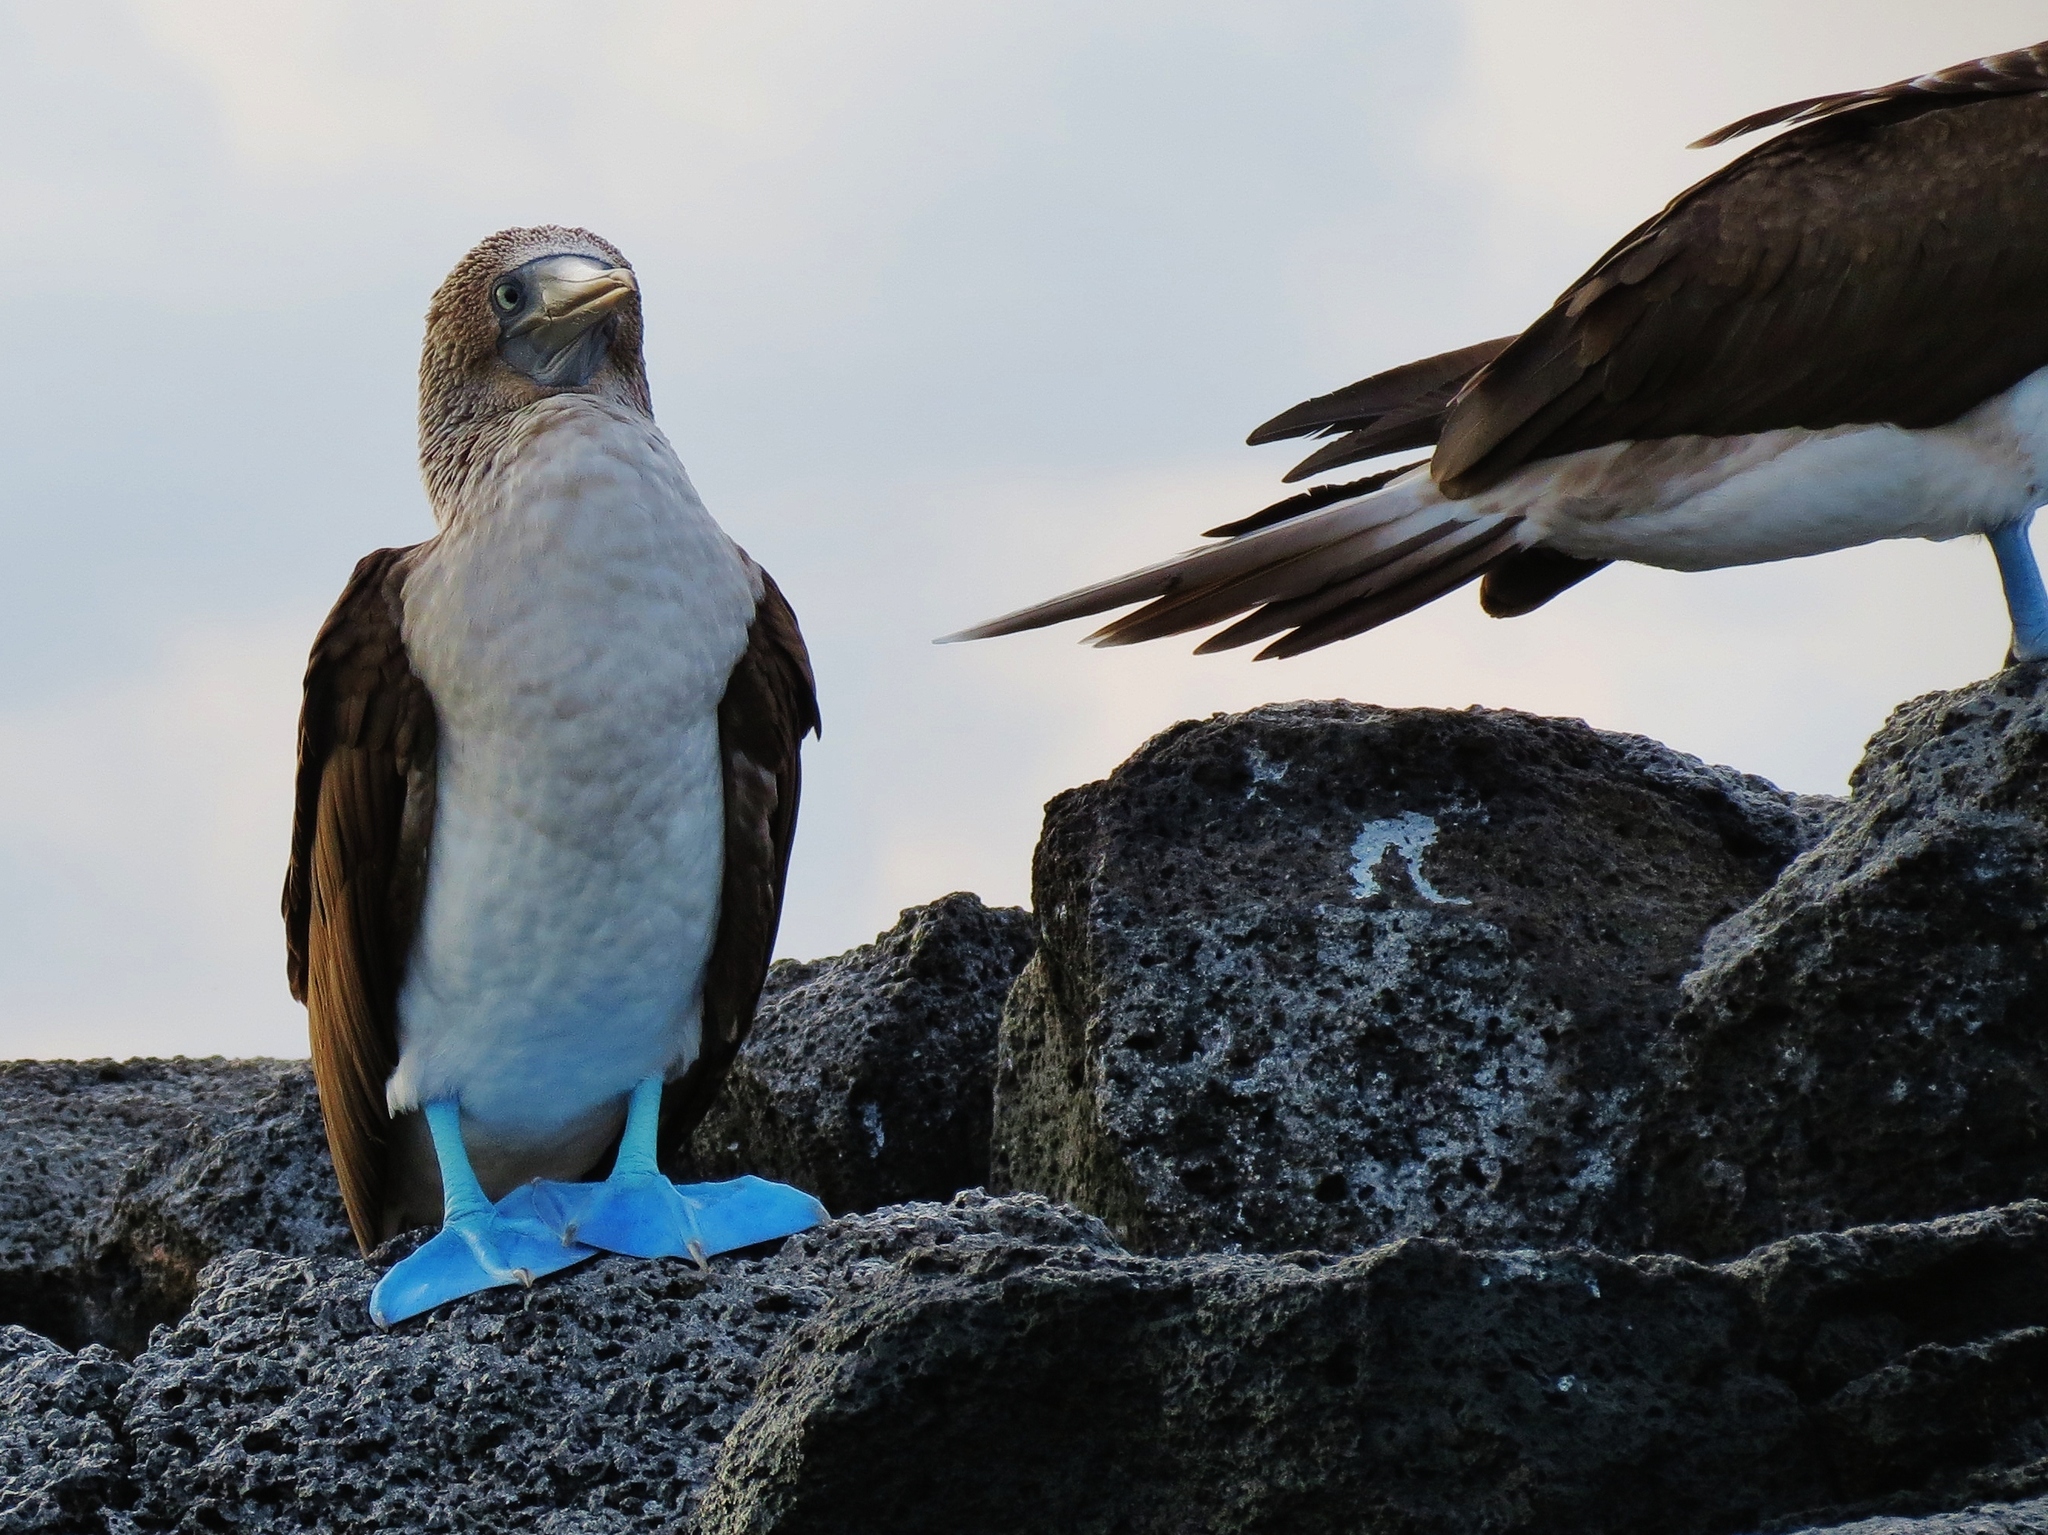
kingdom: Animalia
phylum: Chordata
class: Aves
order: Suliformes
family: Sulidae
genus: Sula
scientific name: Sula nebouxii
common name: Blue-footed booby
